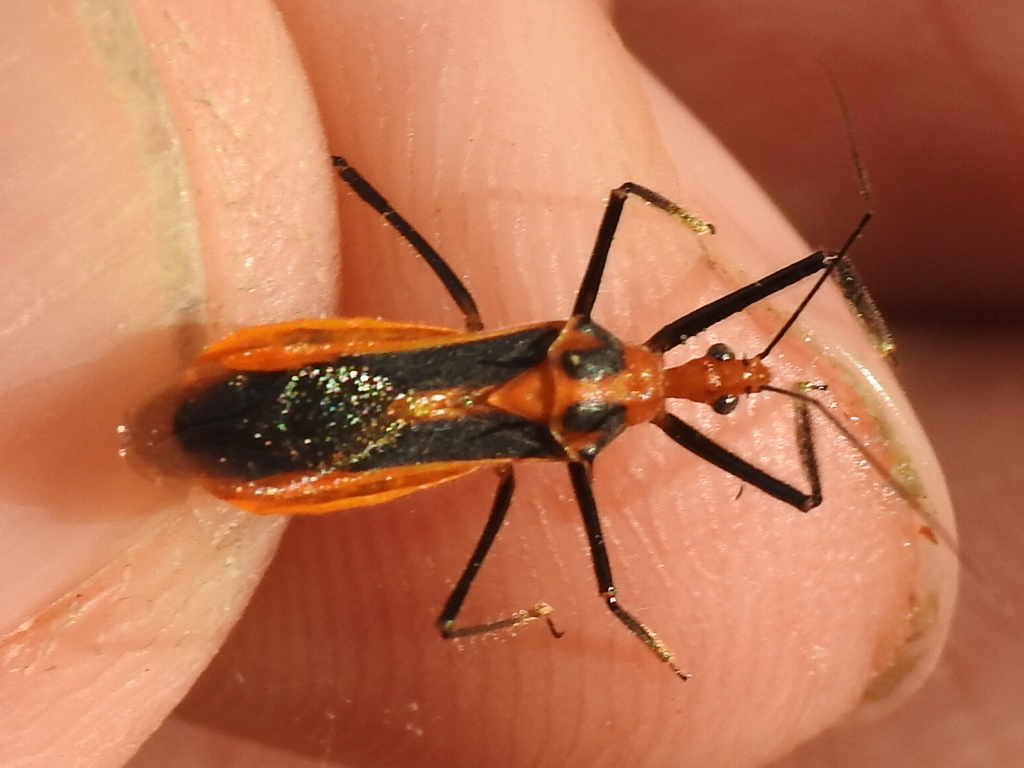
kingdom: Animalia
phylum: Arthropoda
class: Insecta
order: Hemiptera
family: Reduviidae
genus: Repipta
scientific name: Repipta taurus
